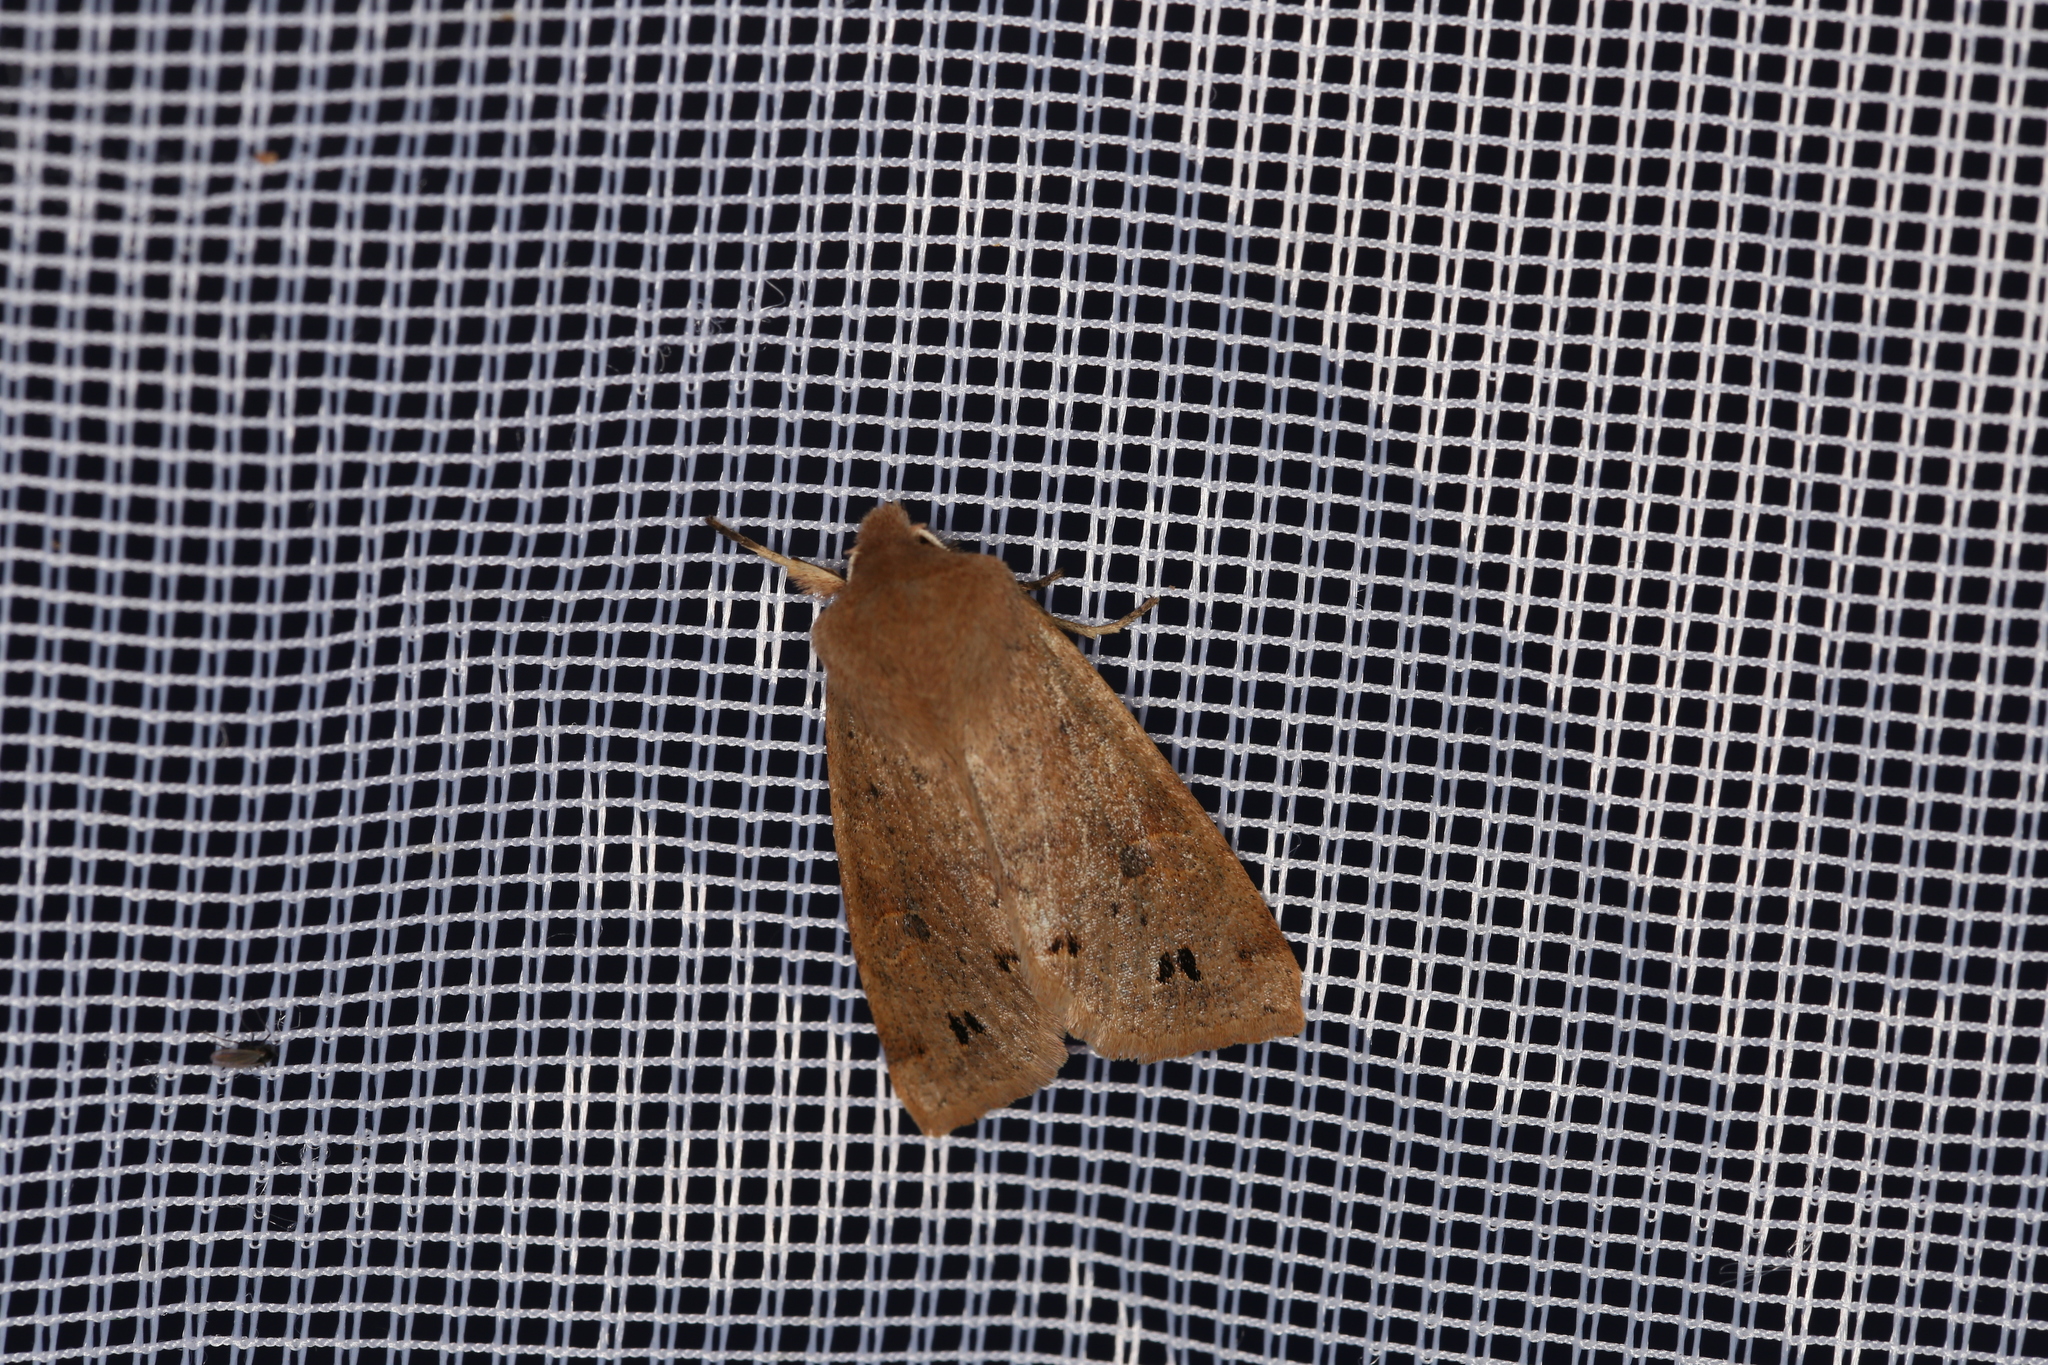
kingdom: Animalia
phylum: Arthropoda
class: Insecta
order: Lepidoptera
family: Noctuidae
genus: Anorthoa
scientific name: Anorthoa munda
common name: Twin-spotted quaker
